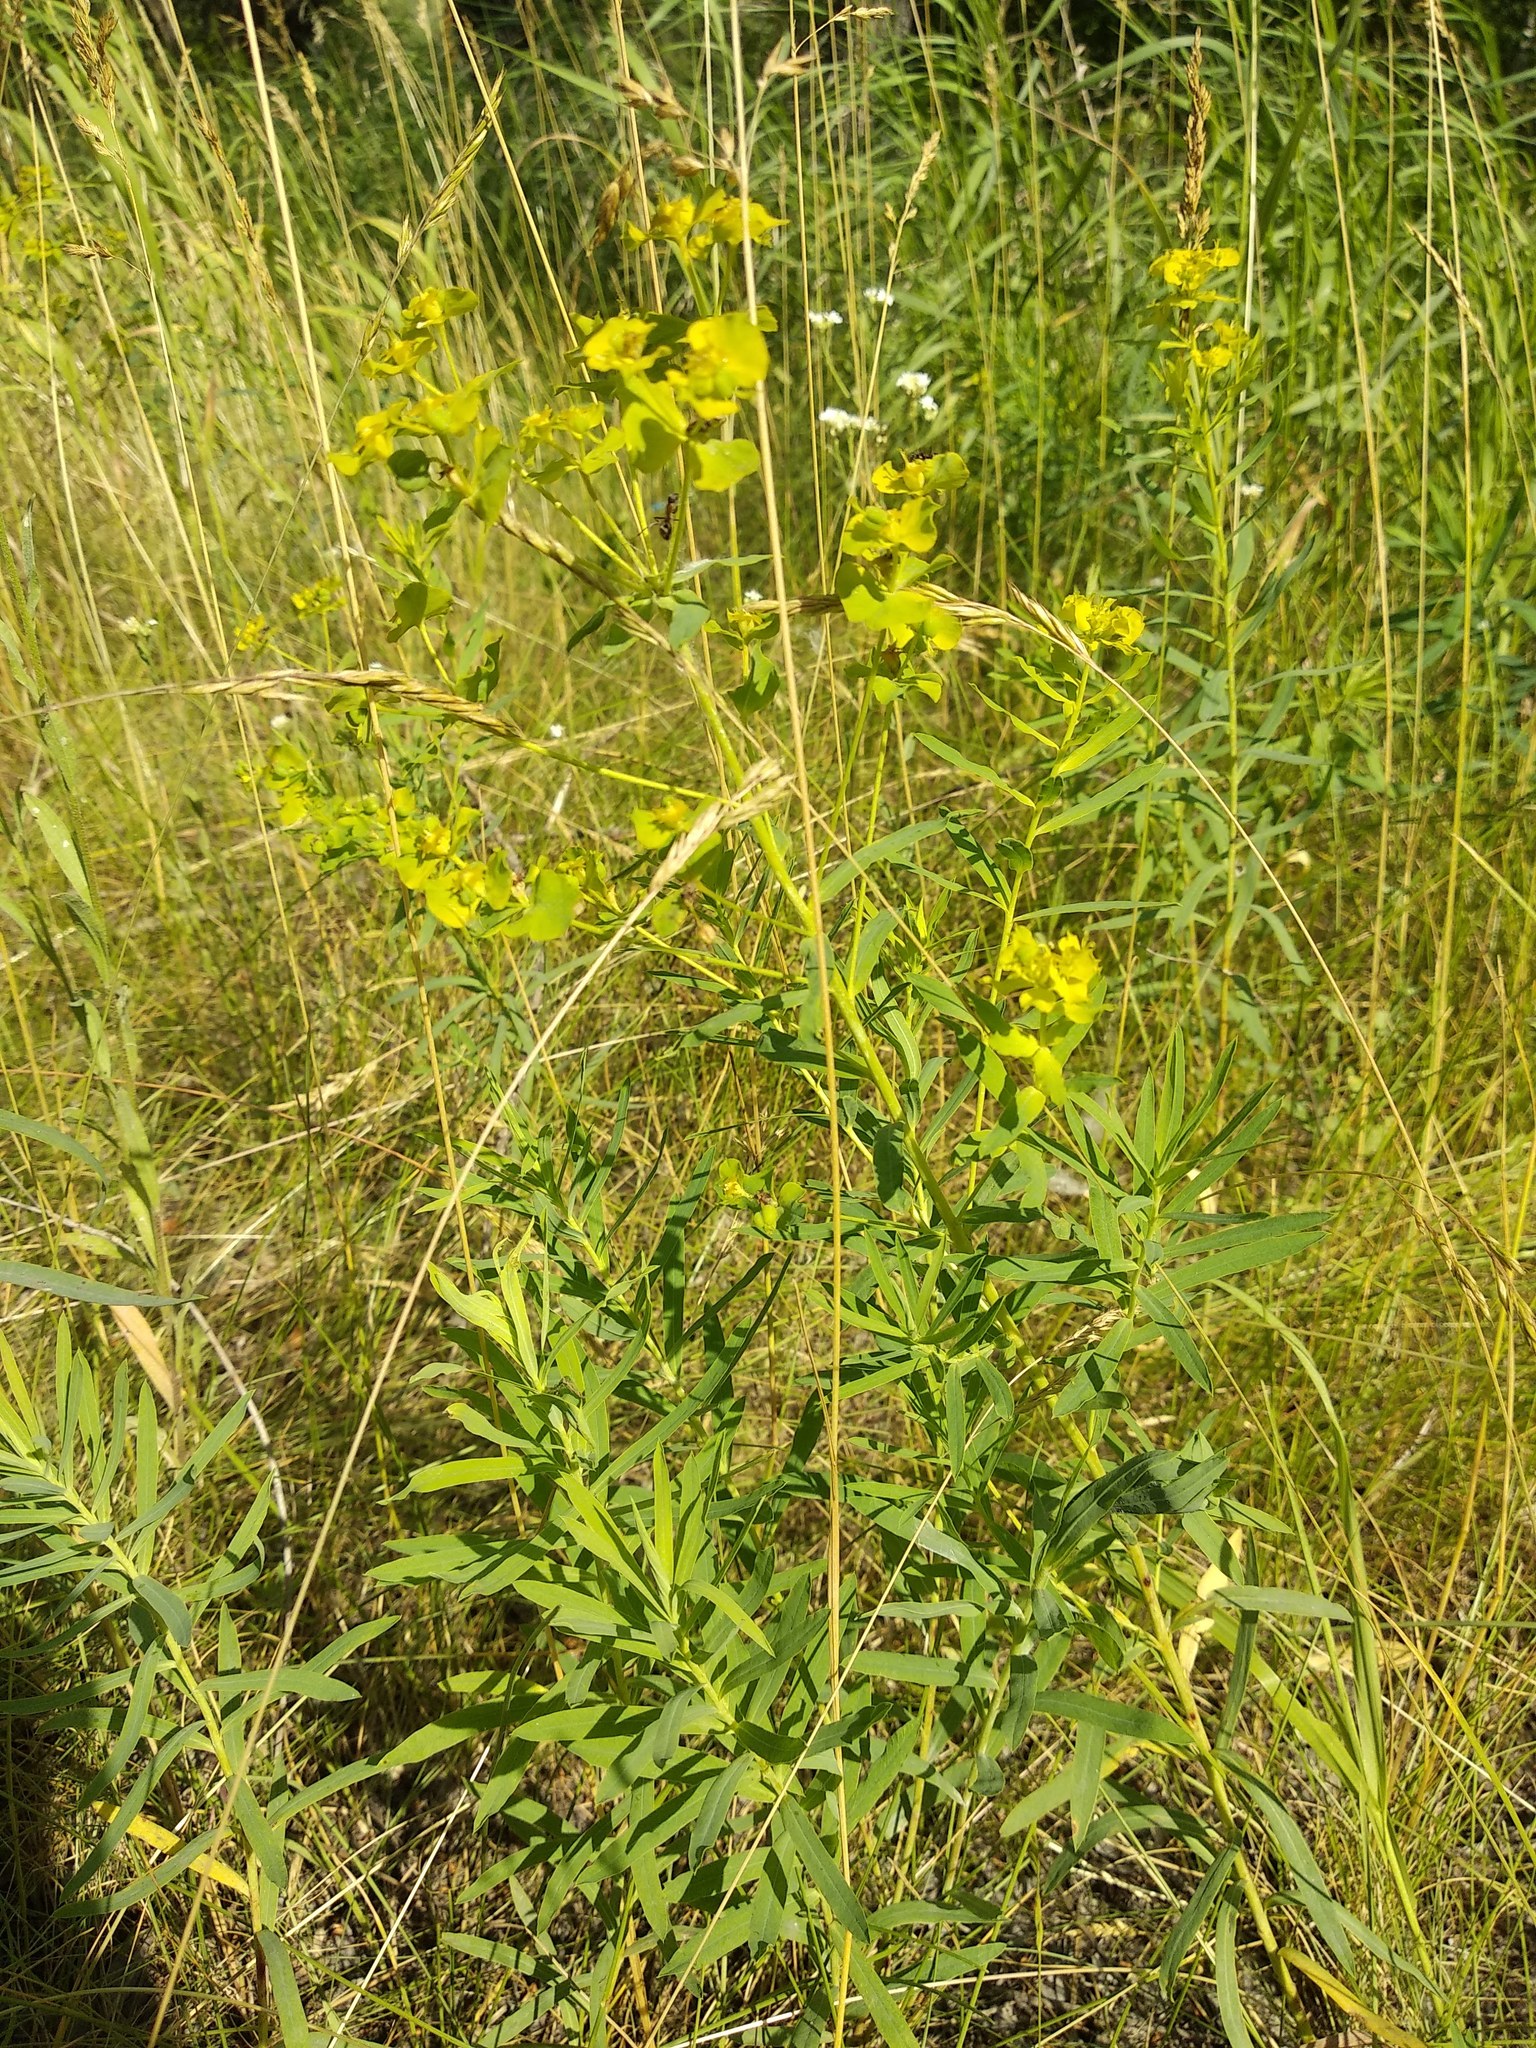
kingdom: Plantae
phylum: Tracheophyta
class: Magnoliopsida
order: Malpighiales
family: Euphorbiaceae
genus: Euphorbia
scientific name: Euphorbia virgata
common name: Leafy spurge
